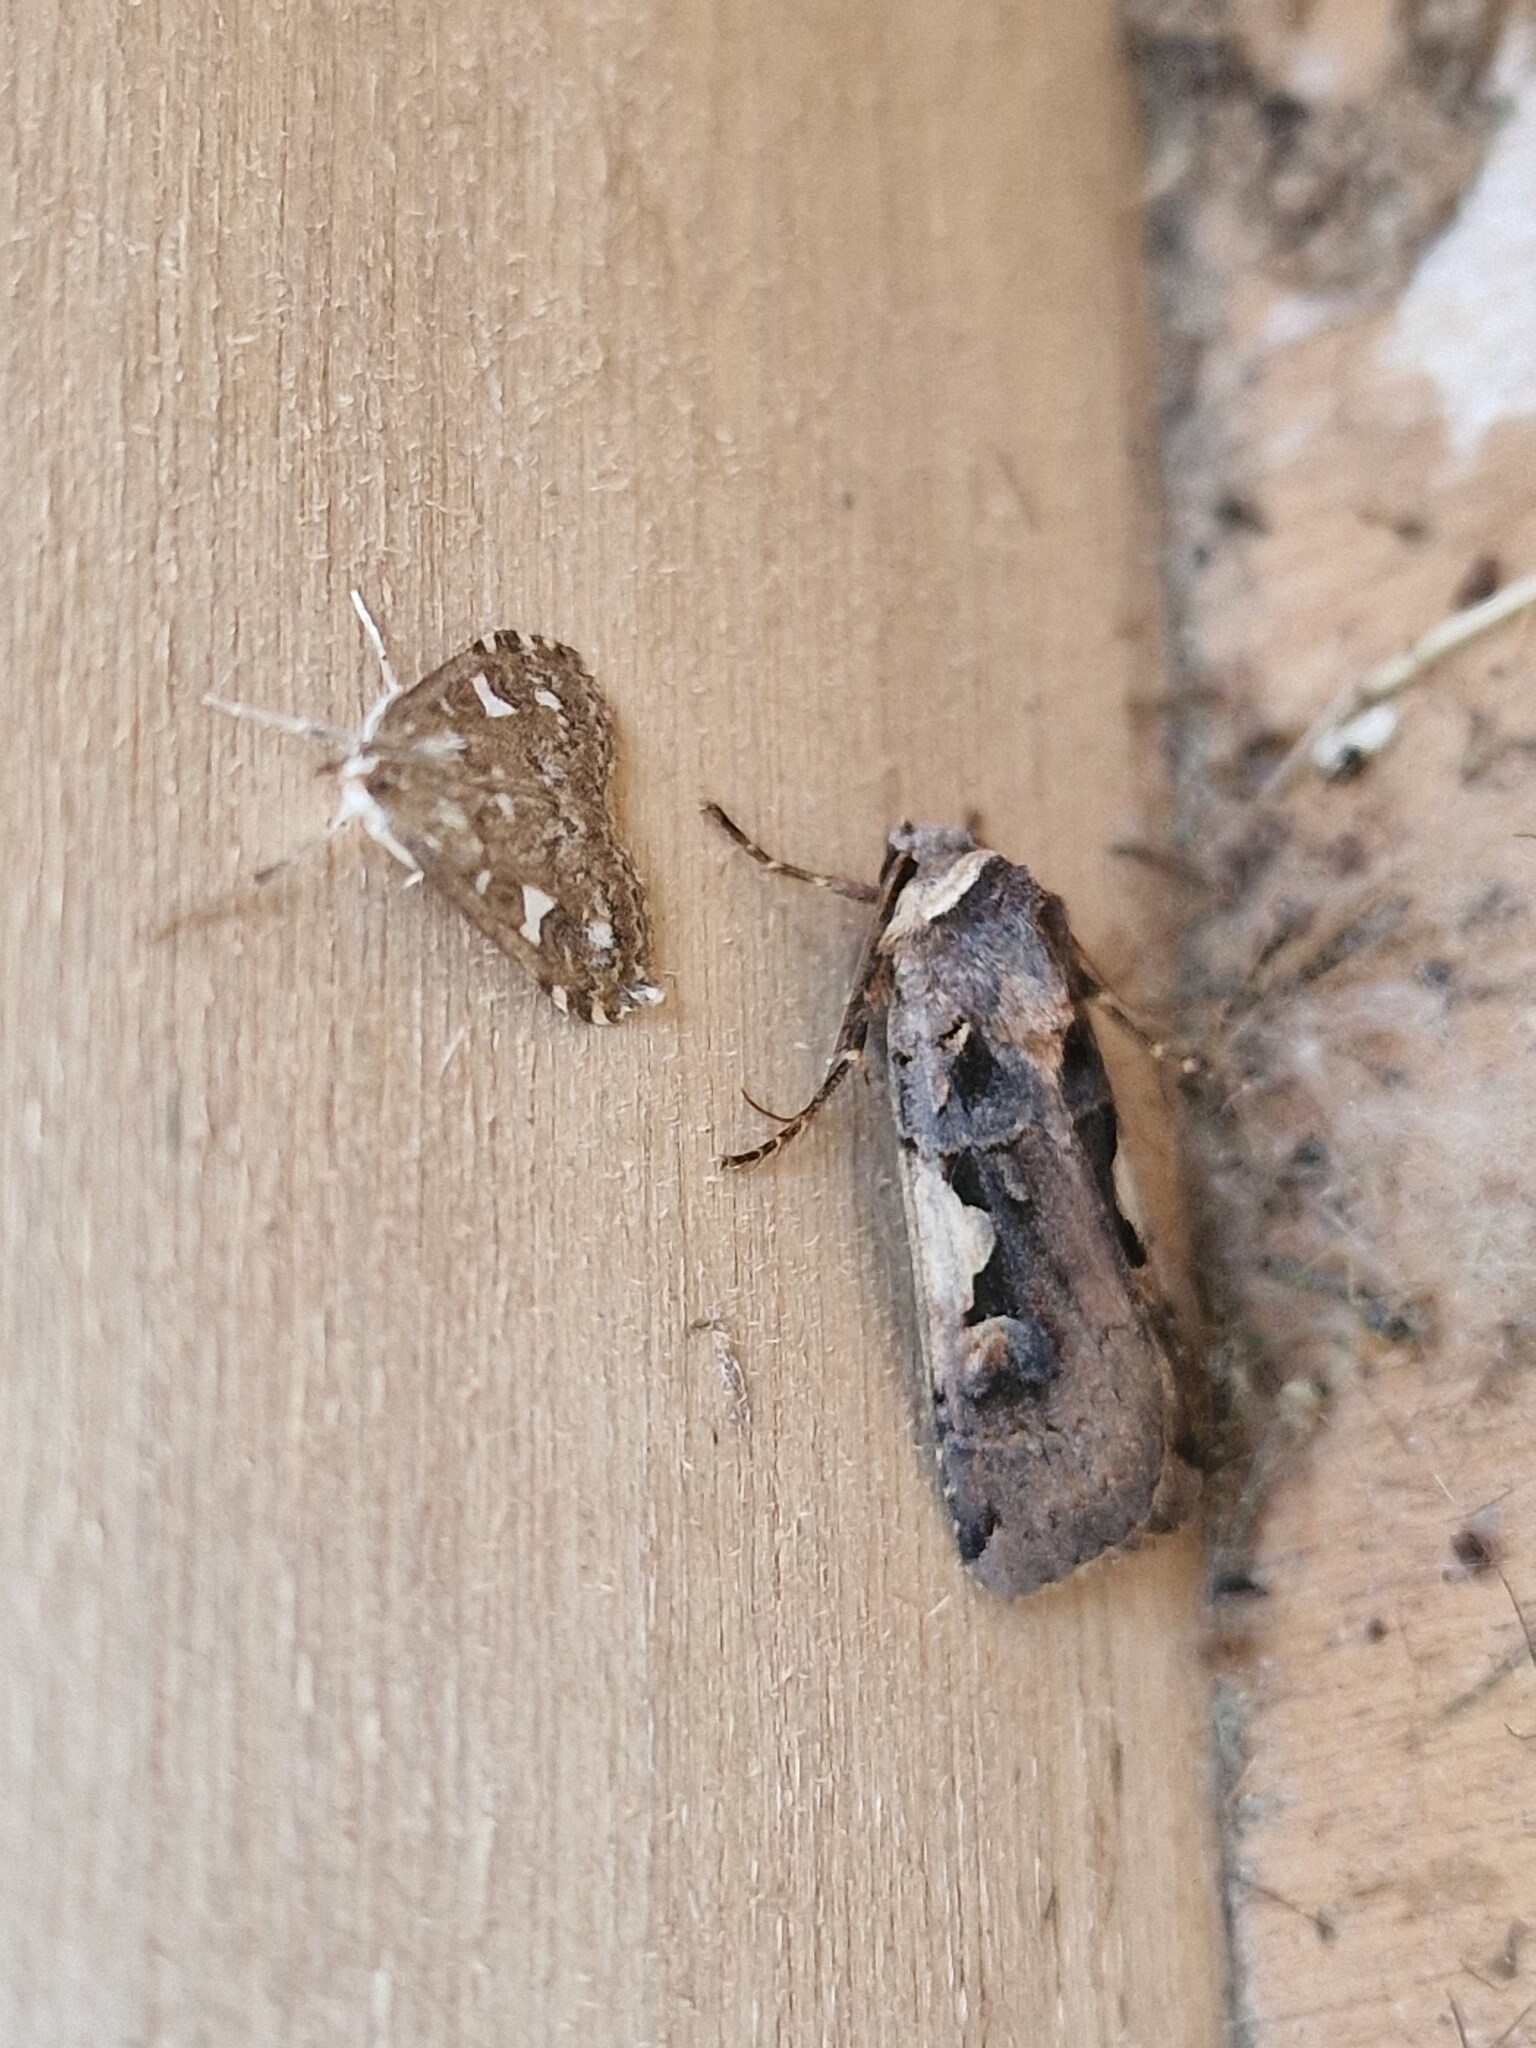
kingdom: Animalia
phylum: Arthropoda
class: Insecta
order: Lepidoptera
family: Noctuidae
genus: Xestia
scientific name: Xestia c-nigrum
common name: Setaceous hebrew character
